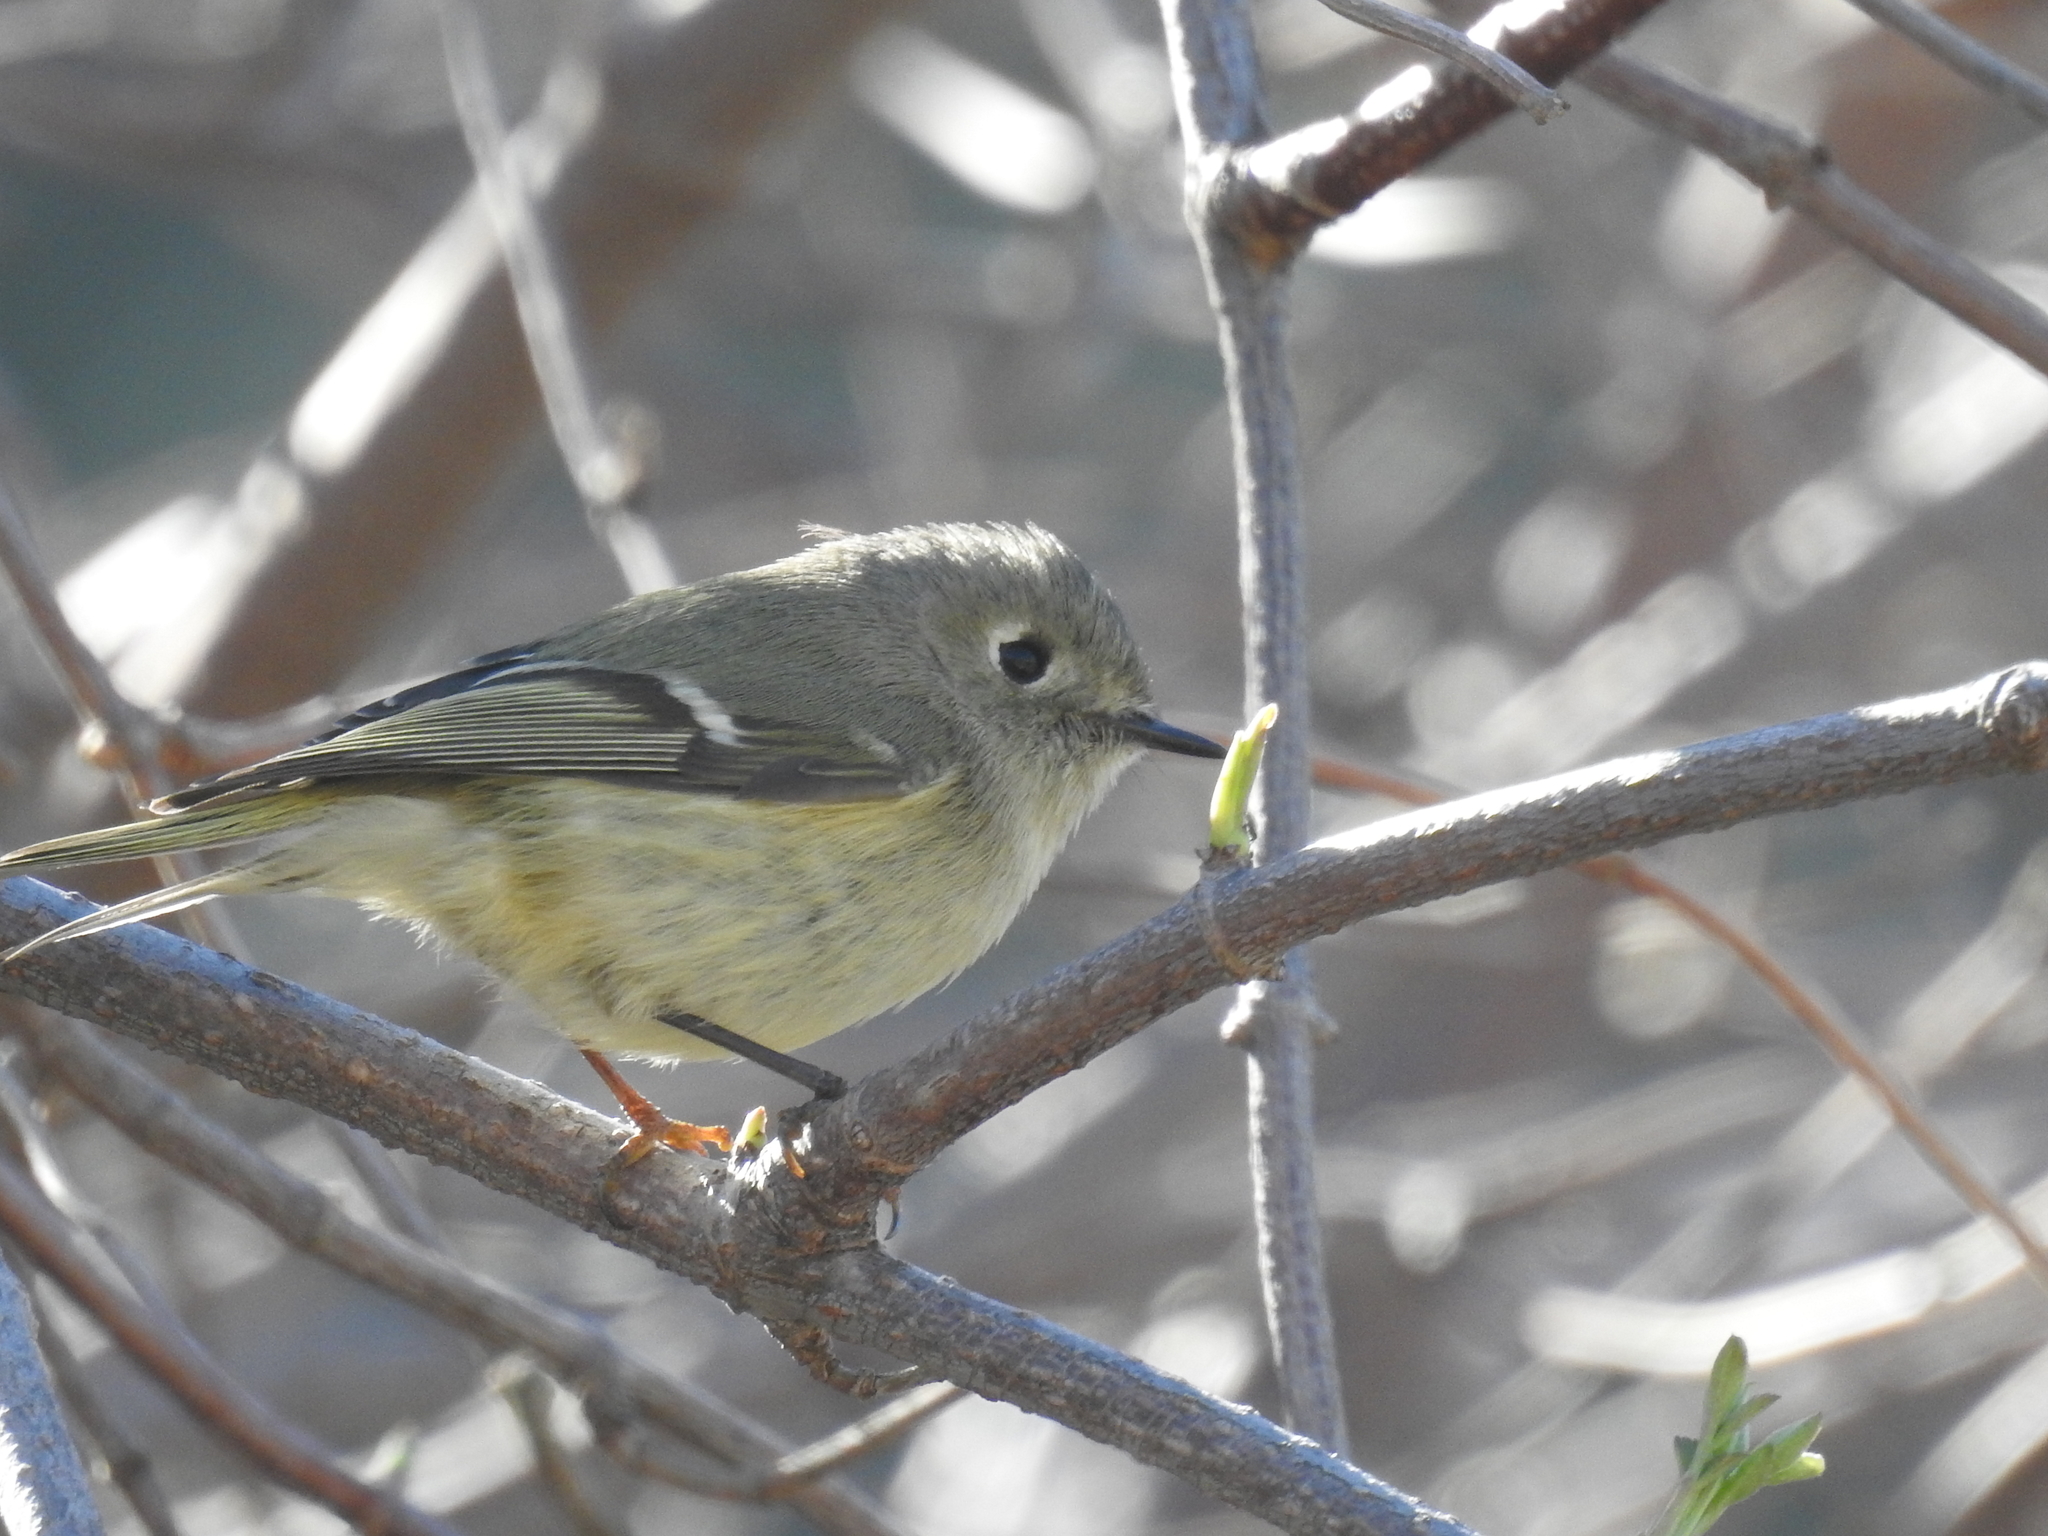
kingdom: Animalia
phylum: Chordata
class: Aves
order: Passeriformes
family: Regulidae
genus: Regulus
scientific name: Regulus calendula
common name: Ruby-crowned kinglet
